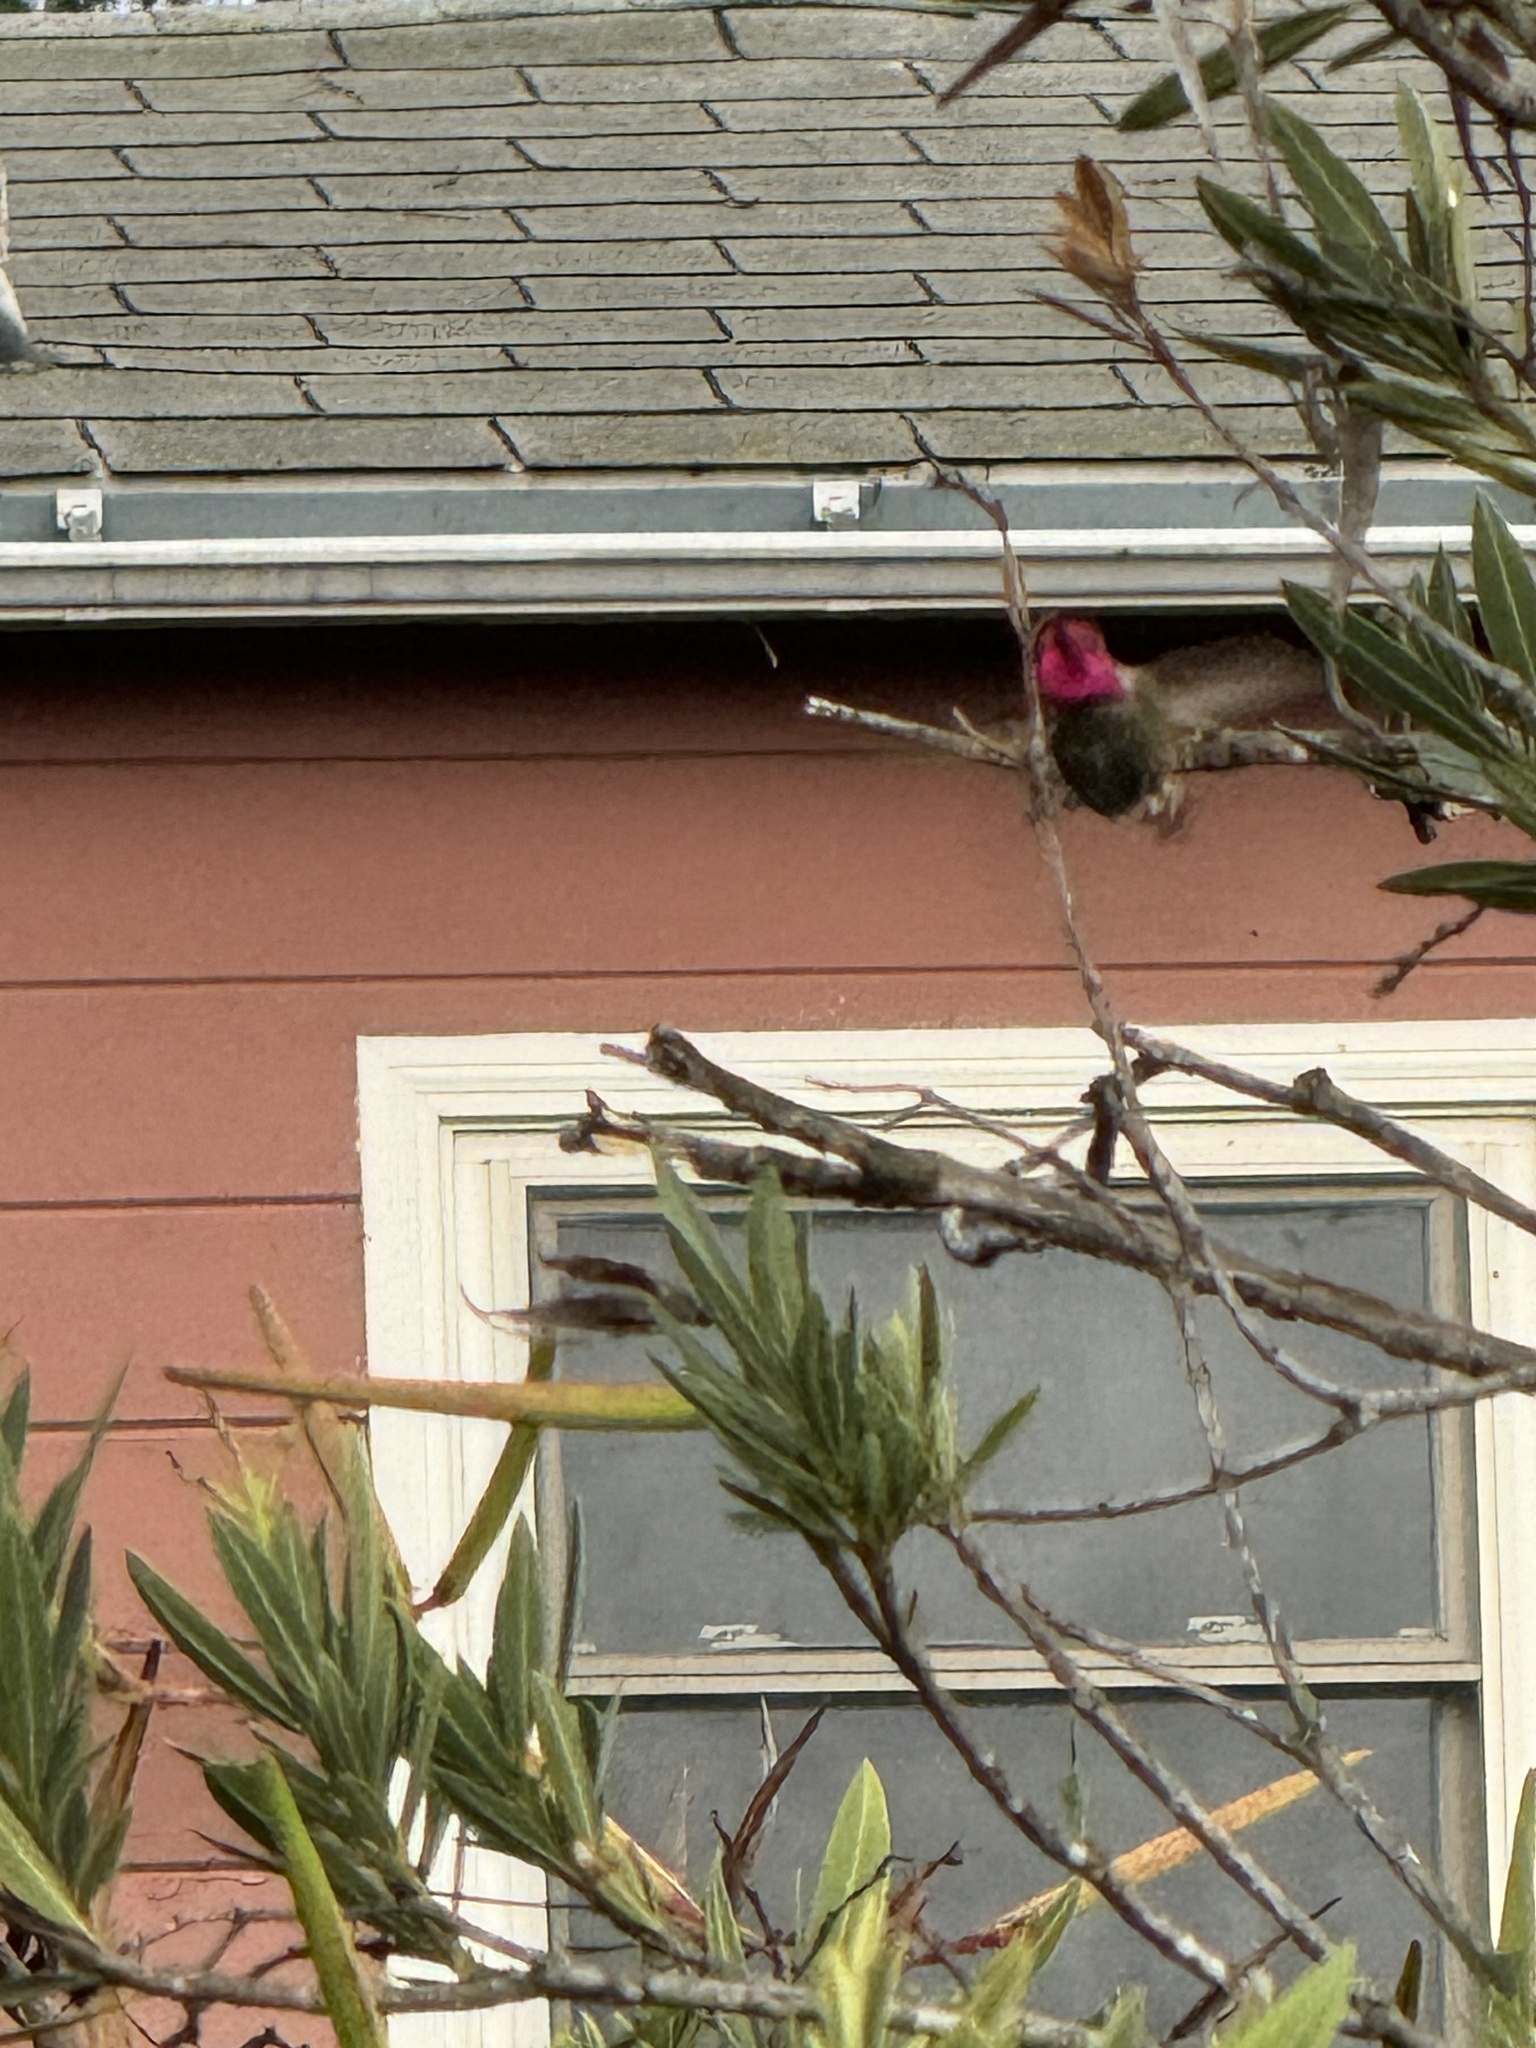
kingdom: Animalia
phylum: Chordata
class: Aves
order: Apodiformes
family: Trochilidae
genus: Calypte
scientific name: Calypte anna
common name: Anna's hummingbird
